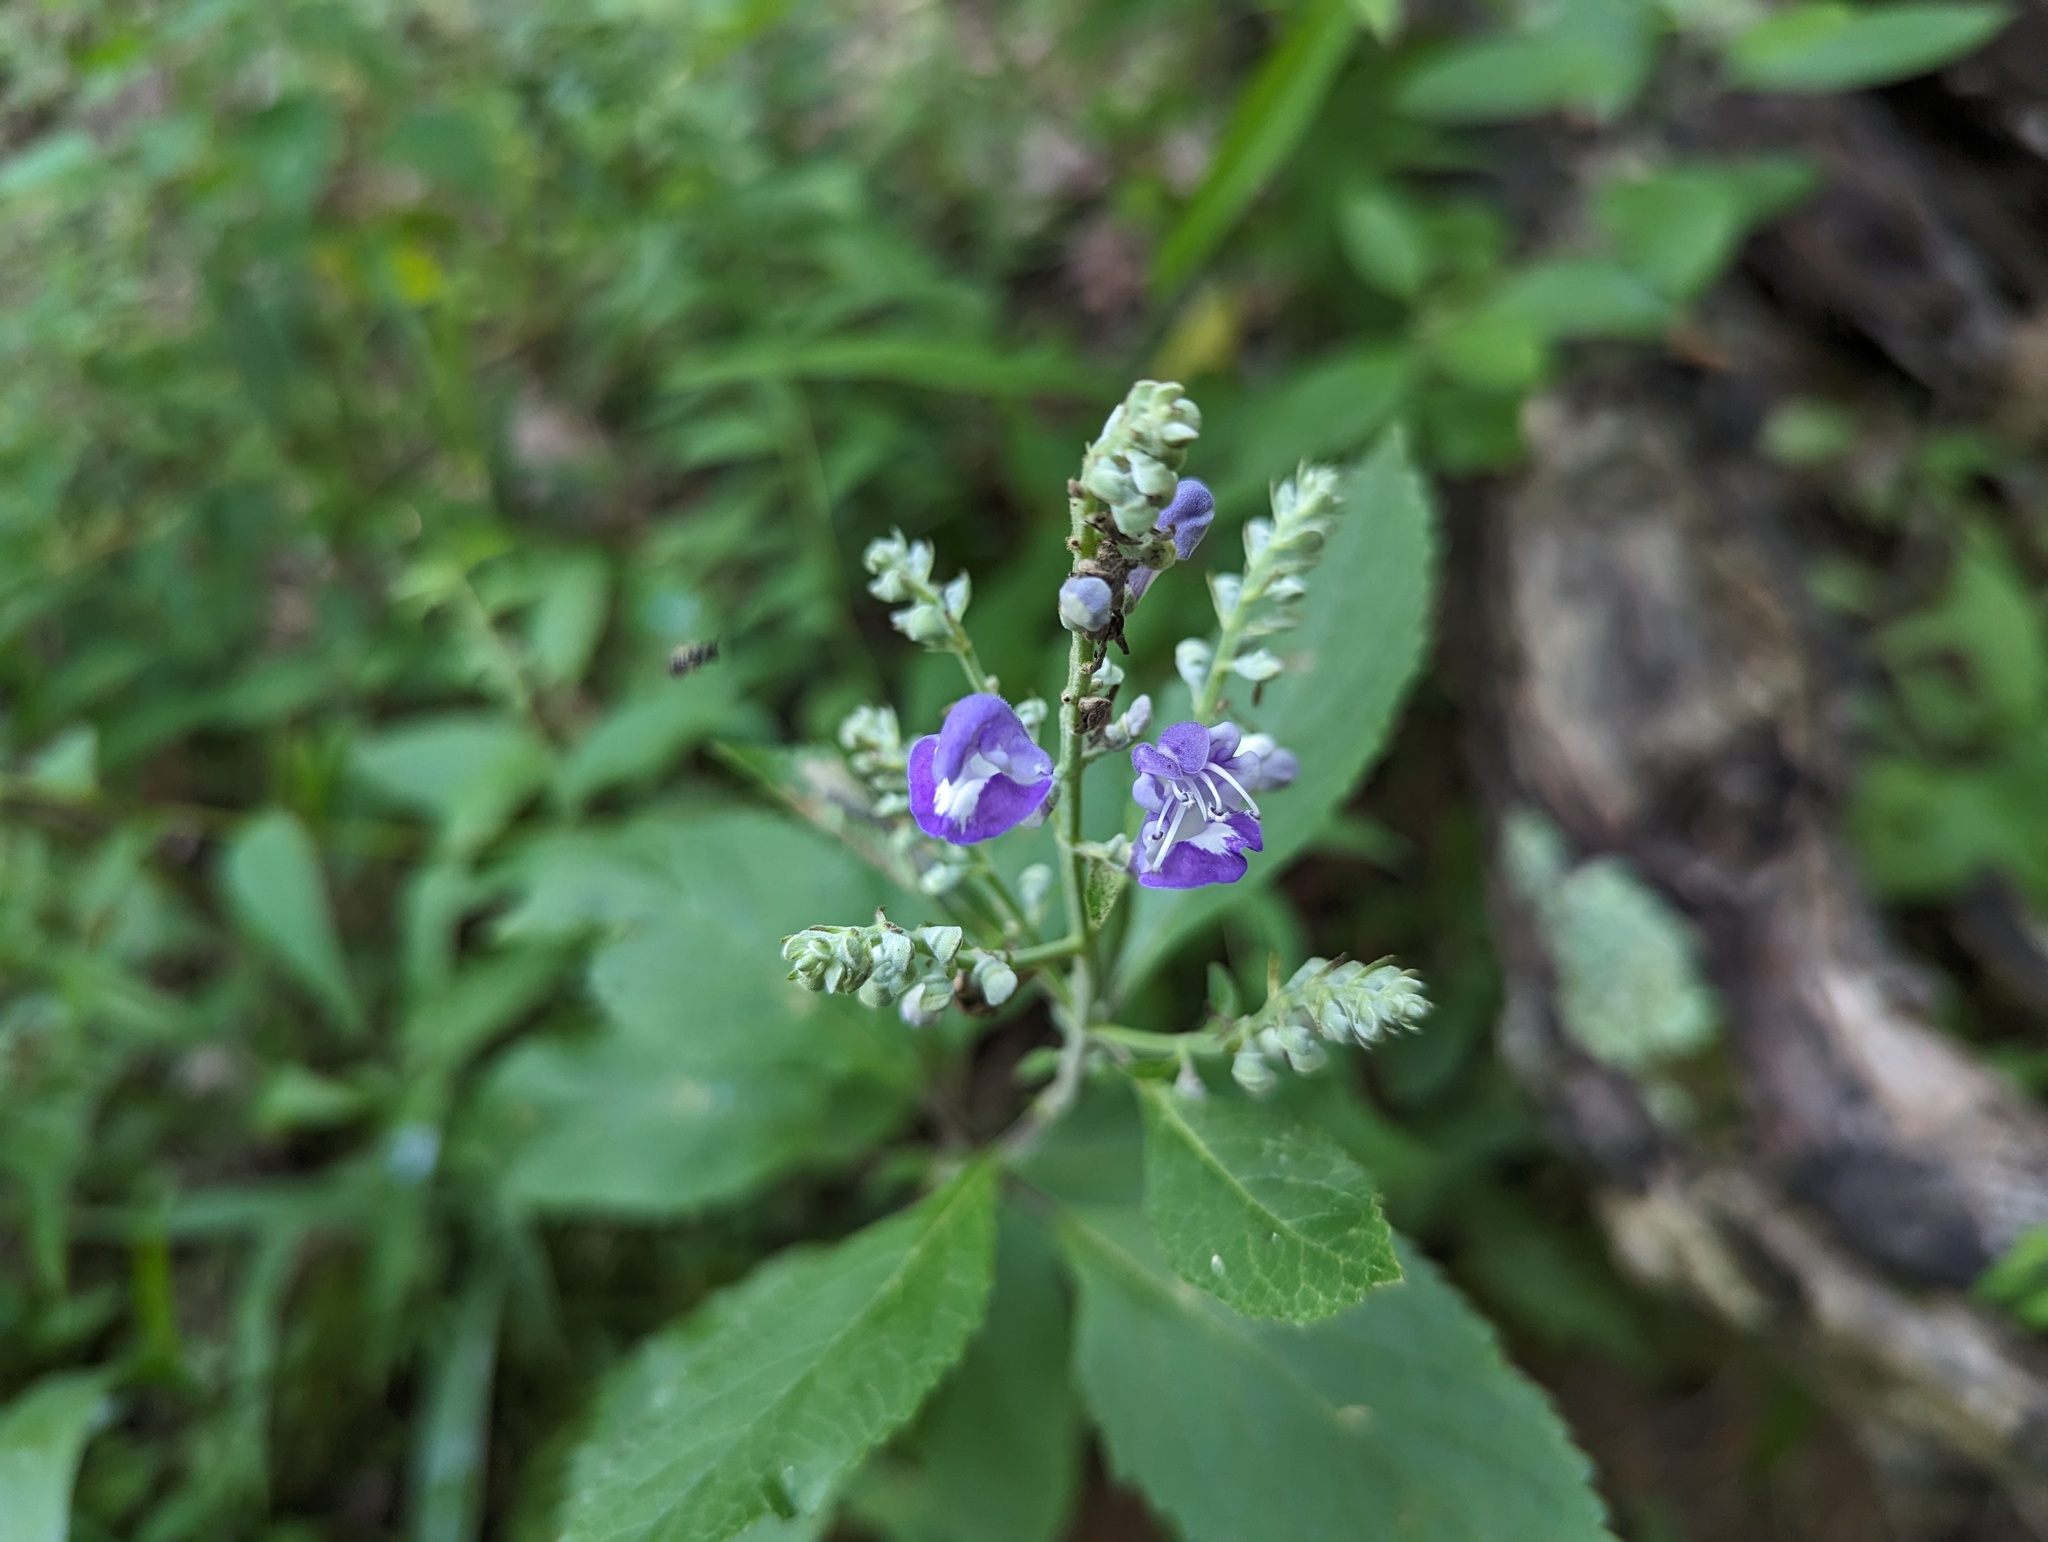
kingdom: Plantae
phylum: Tracheophyta
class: Magnoliopsida
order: Lamiales
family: Lamiaceae
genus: Scutellaria
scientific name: Scutellaria incana
